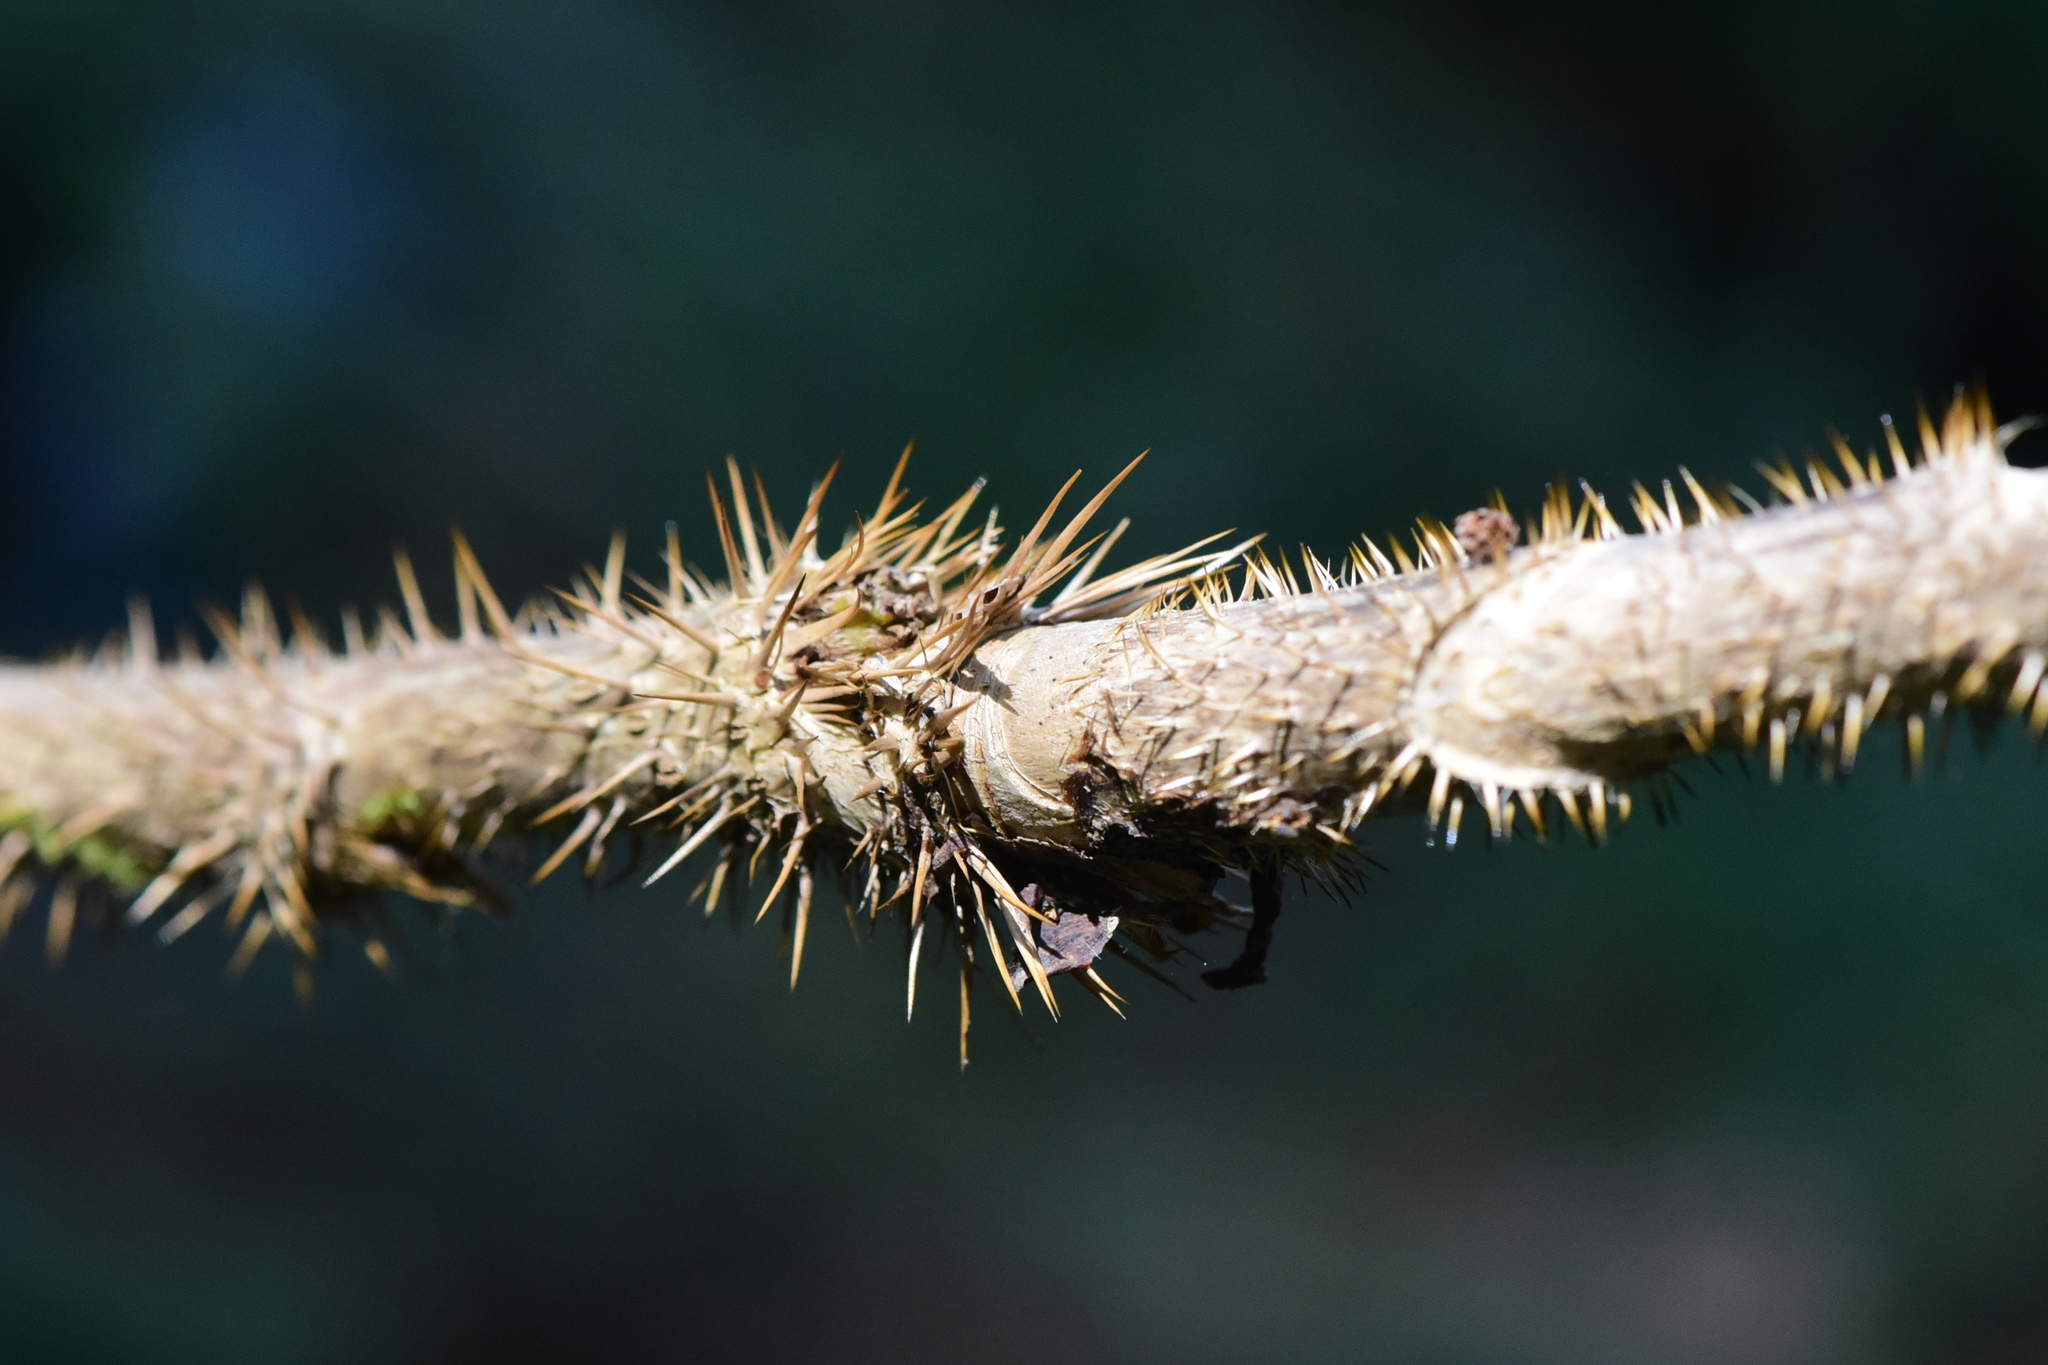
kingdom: Plantae
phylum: Tracheophyta
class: Magnoliopsida
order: Apiales
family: Araliaceae
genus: Oplopanax
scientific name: Oplopanax horridus
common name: Devil's walking-stick
